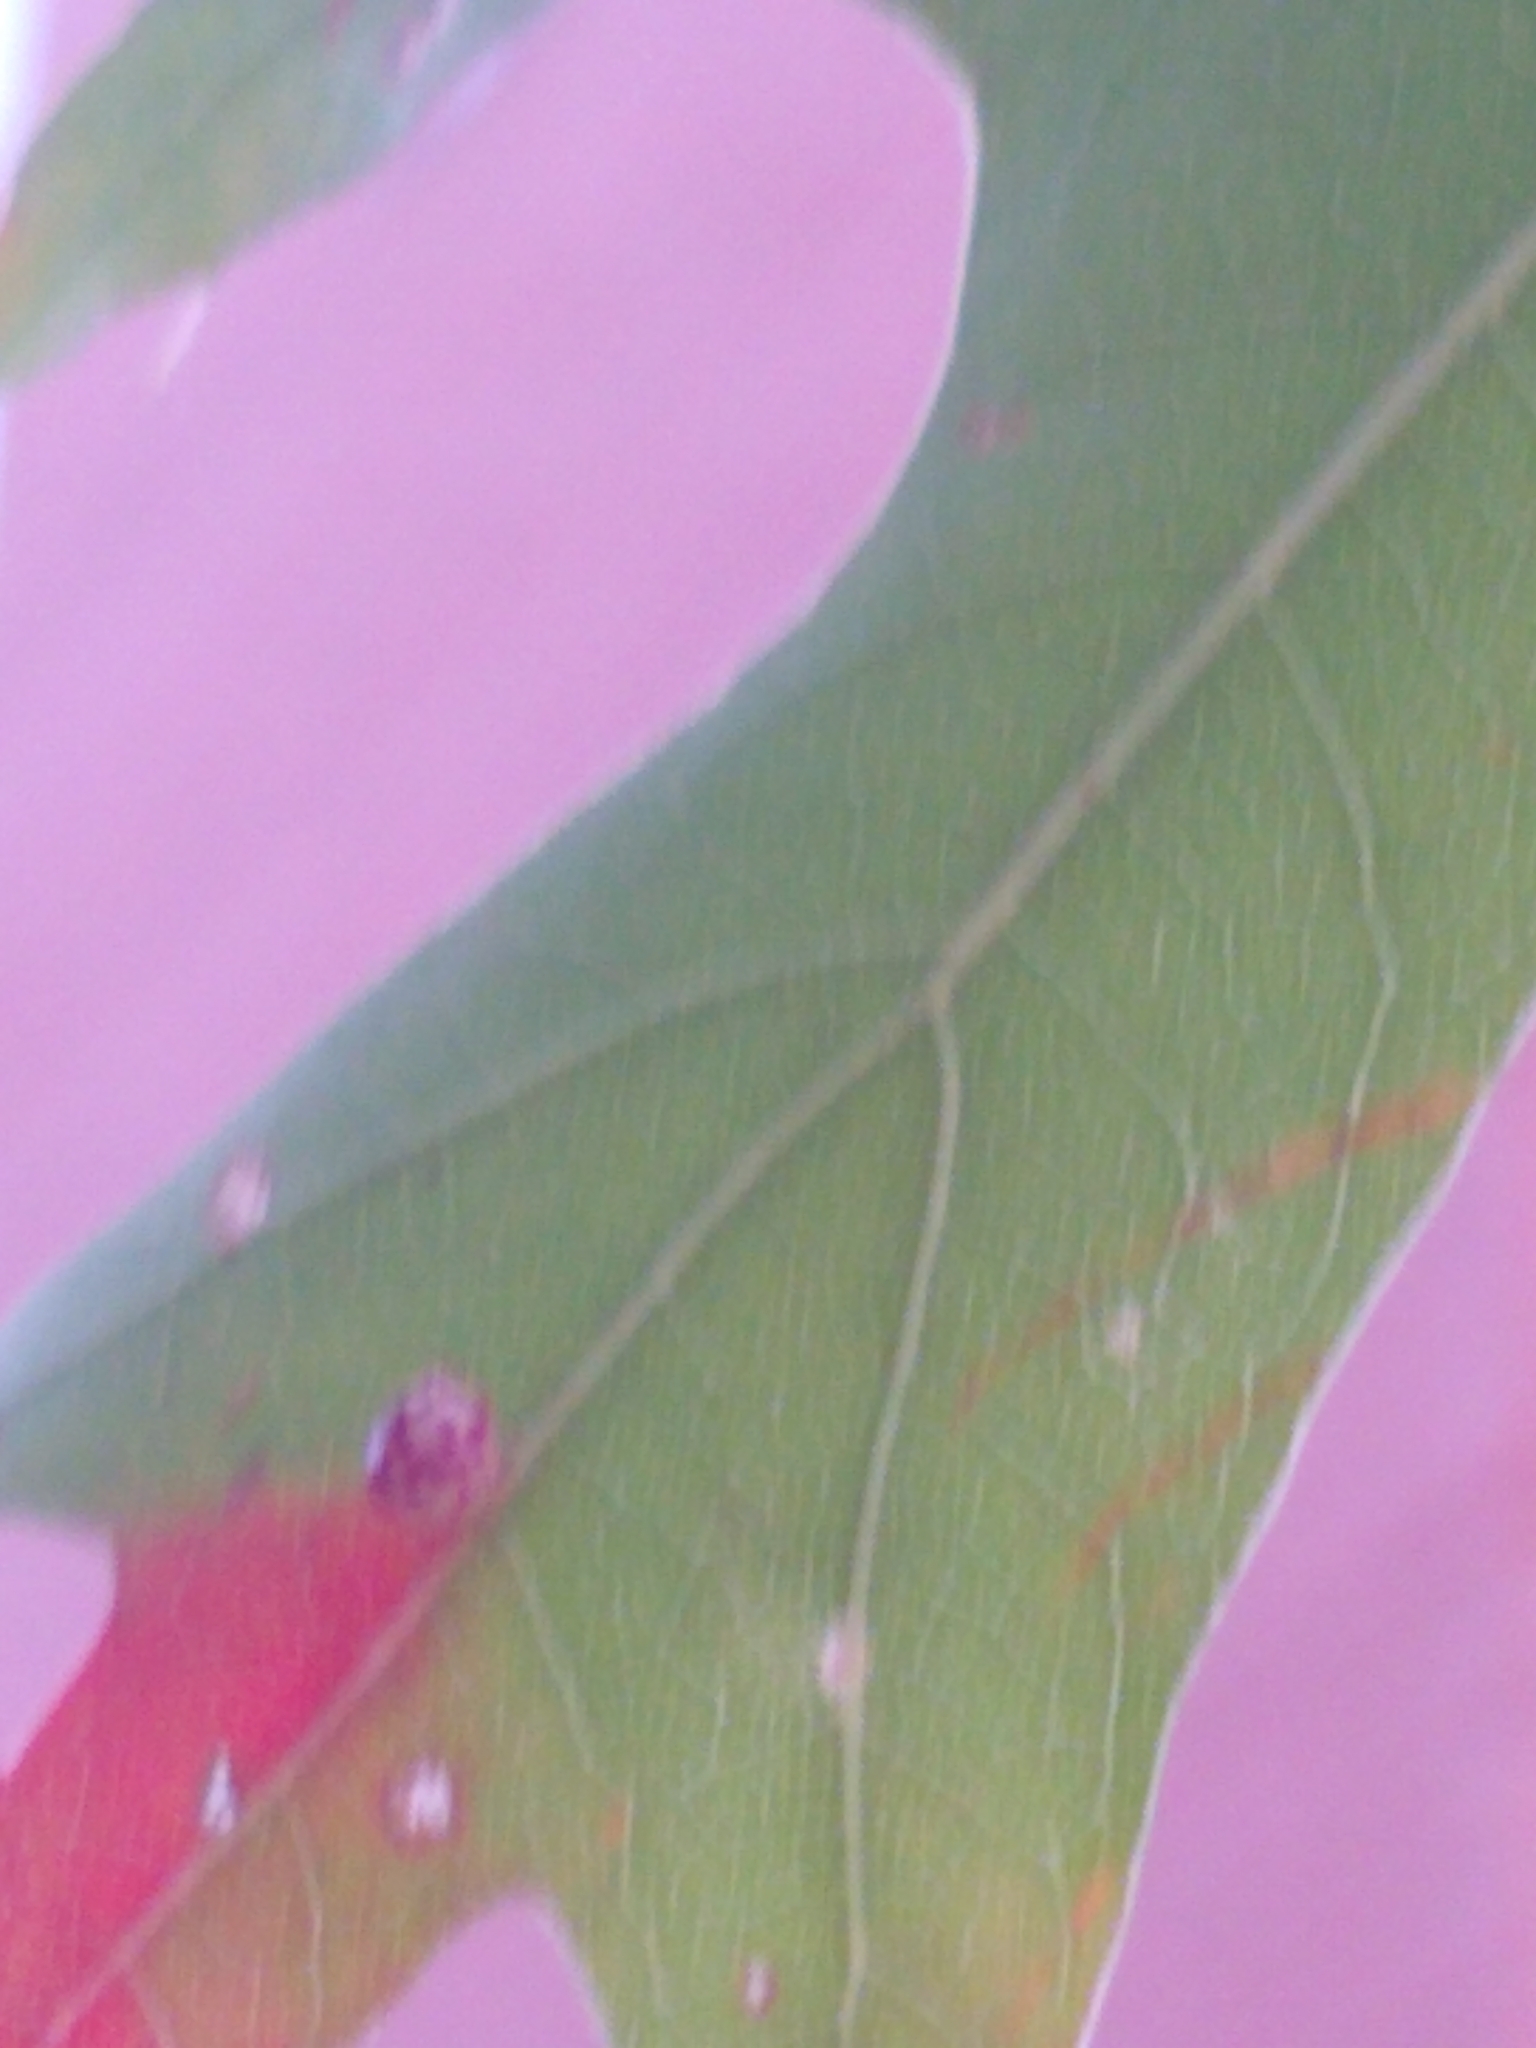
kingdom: Animalia
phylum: Arthropoda
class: Insecta
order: Hymenoptera
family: Cynipidae
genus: Zopheroteras
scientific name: Zopheroteras
